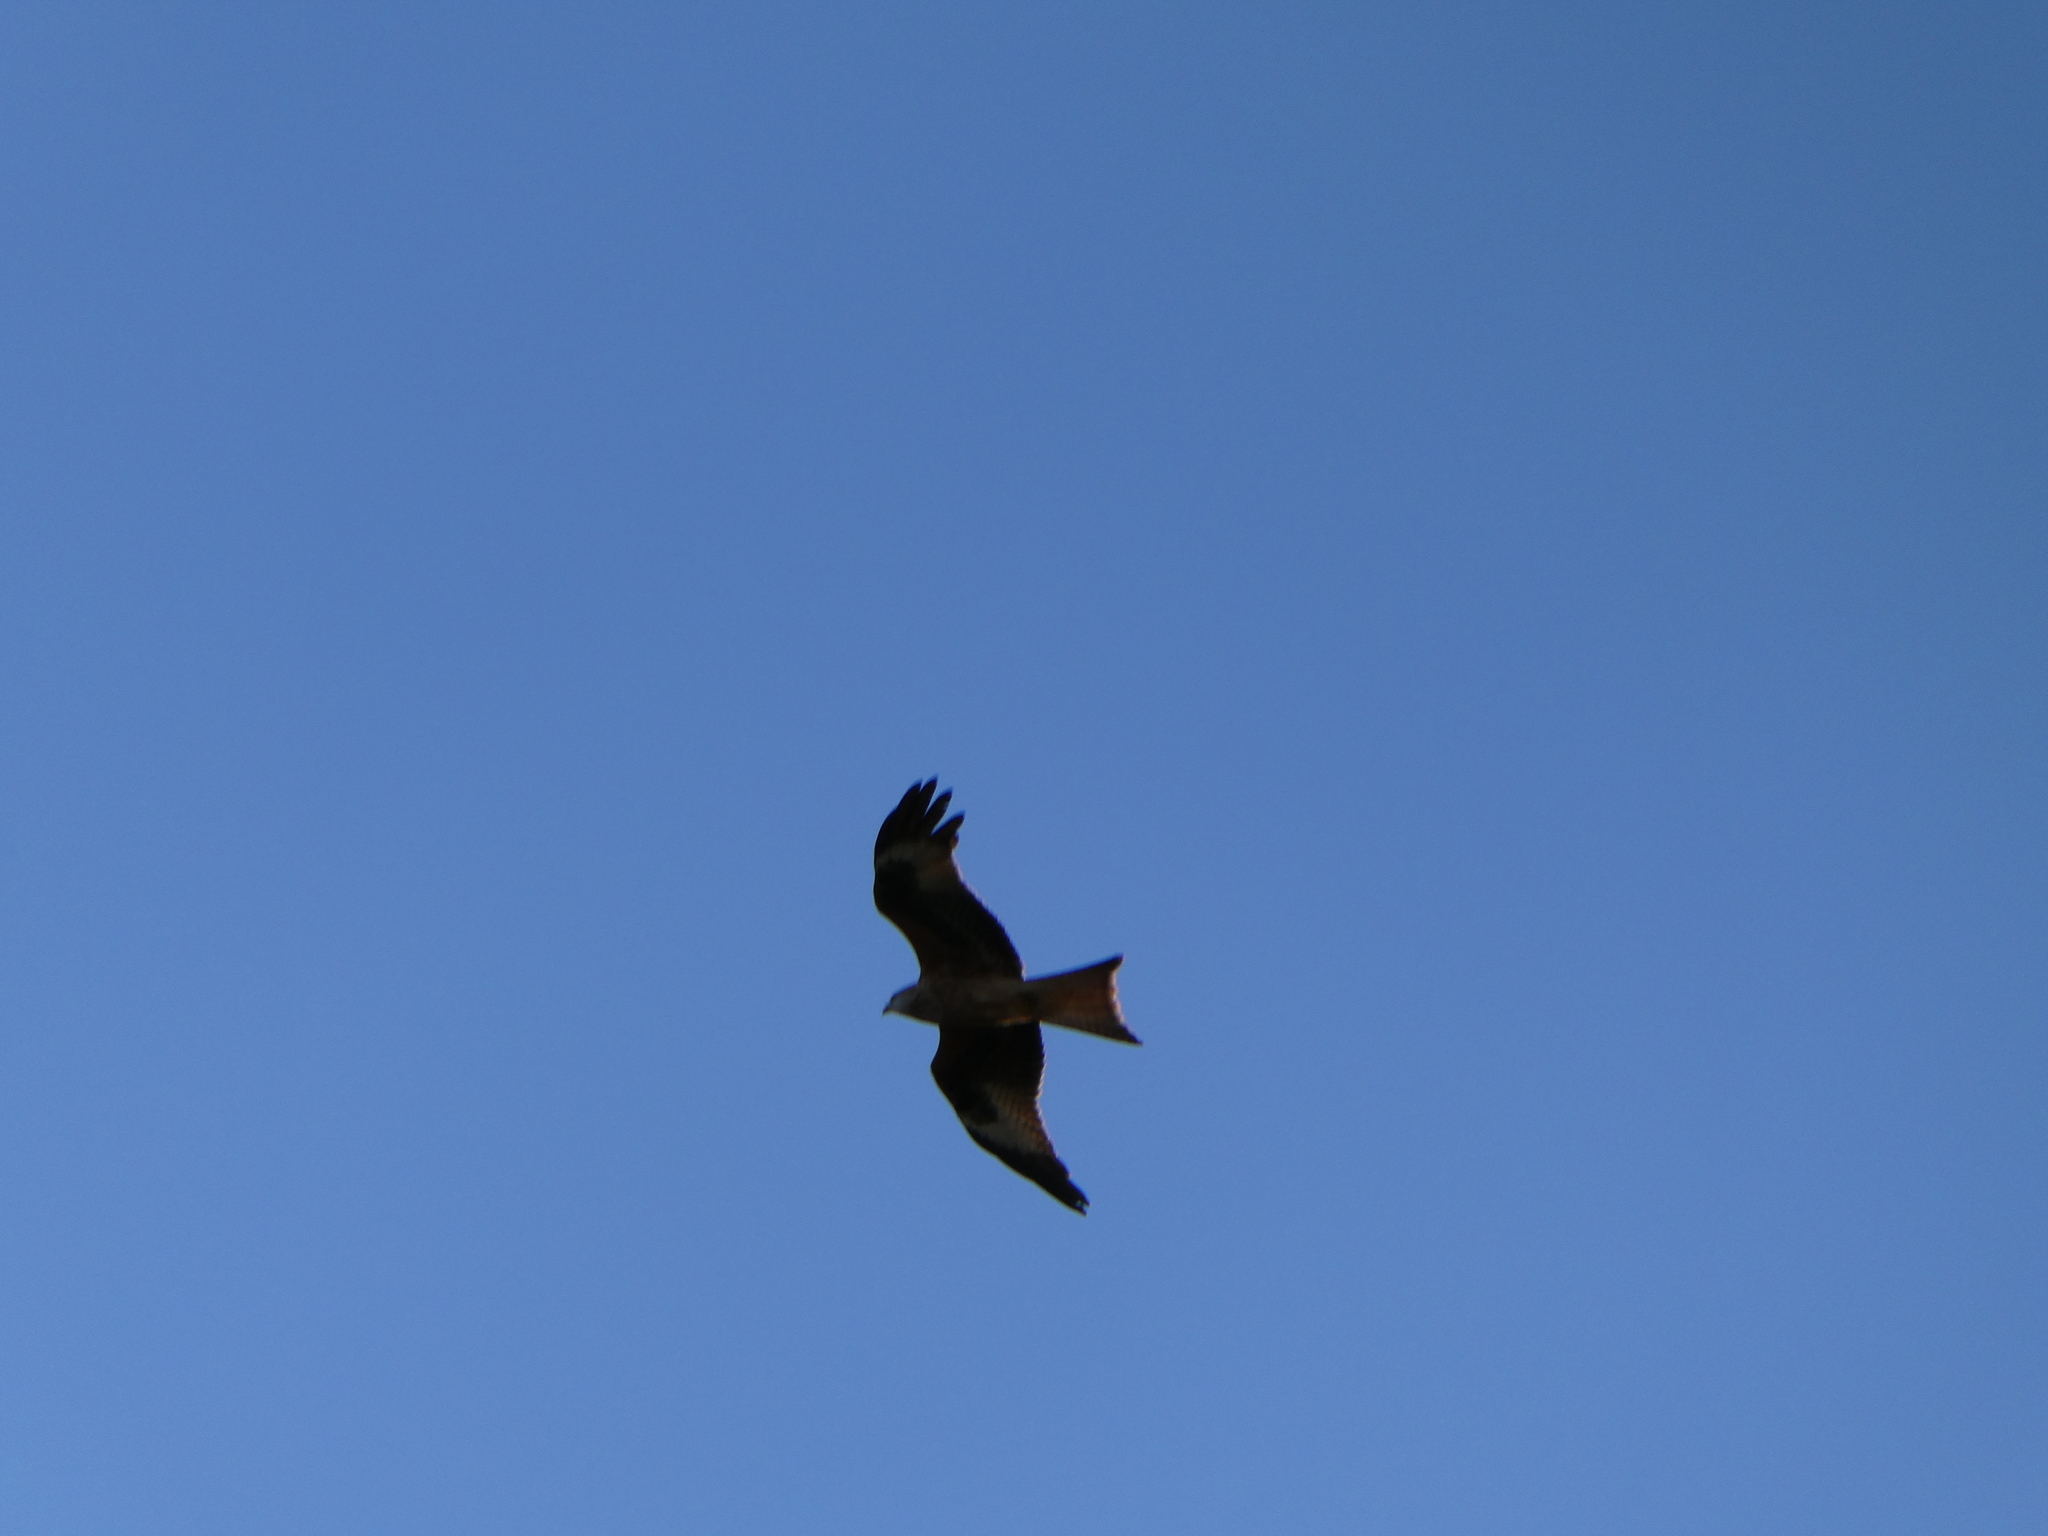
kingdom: Animalia
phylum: Chordata
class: Aves
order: Accipitriformes
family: Accipitridae
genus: Milvus
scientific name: Milvus milvus
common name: Red kite
